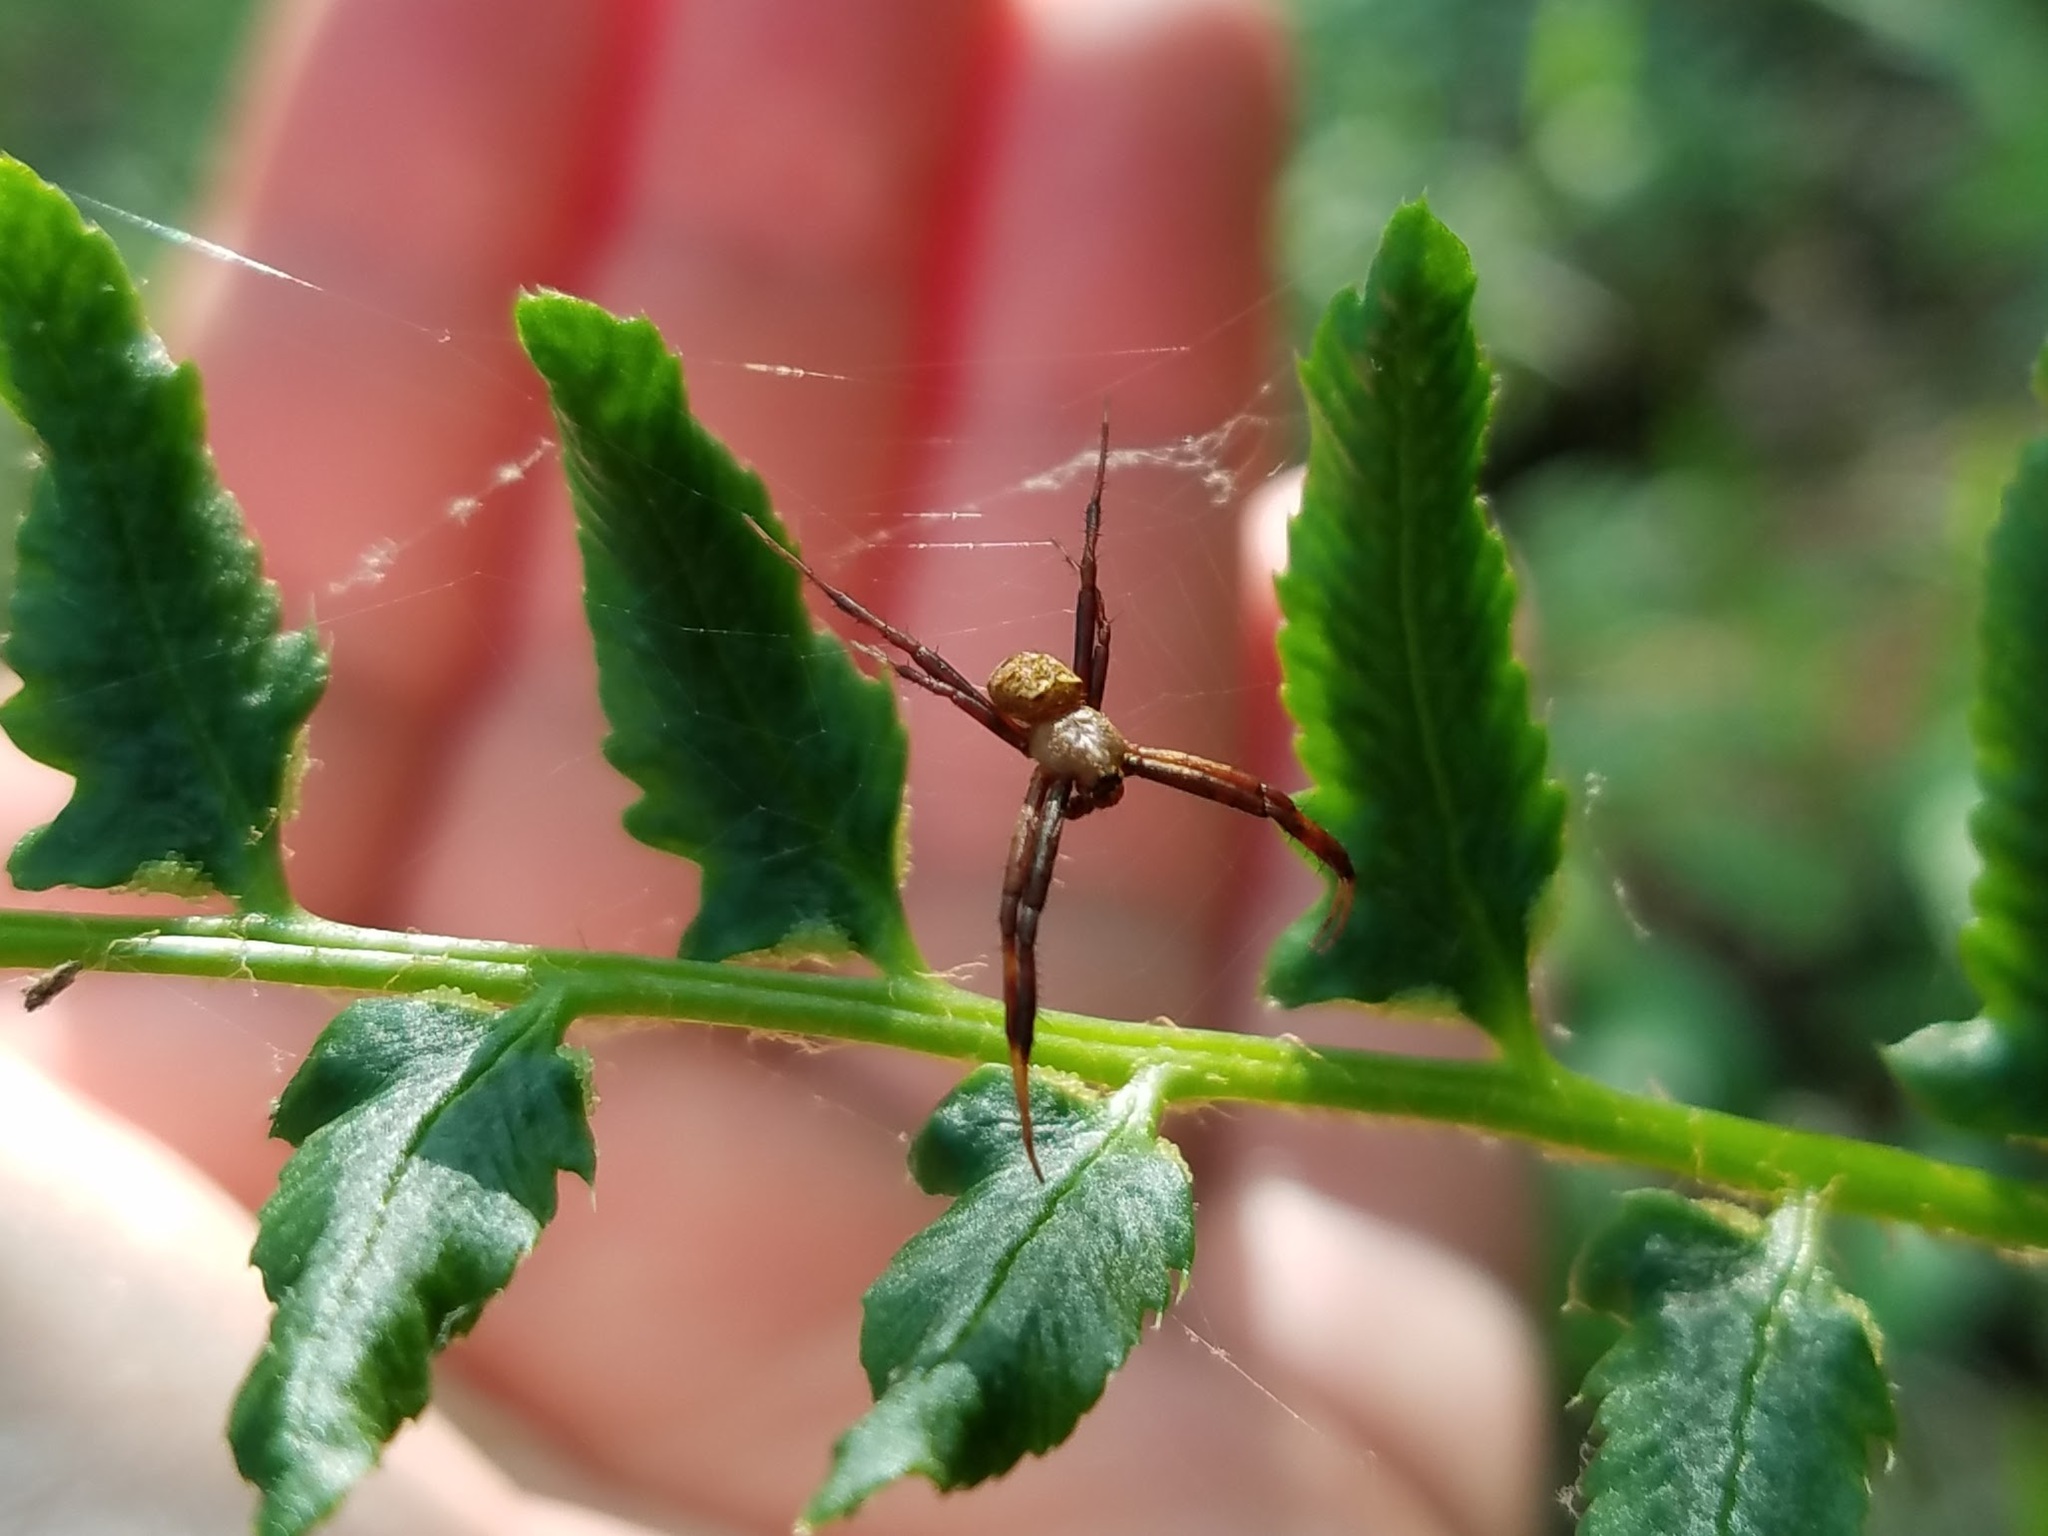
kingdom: Animalia
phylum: Arthropoda
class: Arachnida
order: Araneae
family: Araneidae
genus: Gea
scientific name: Gea heptagon
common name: Orb weavers
